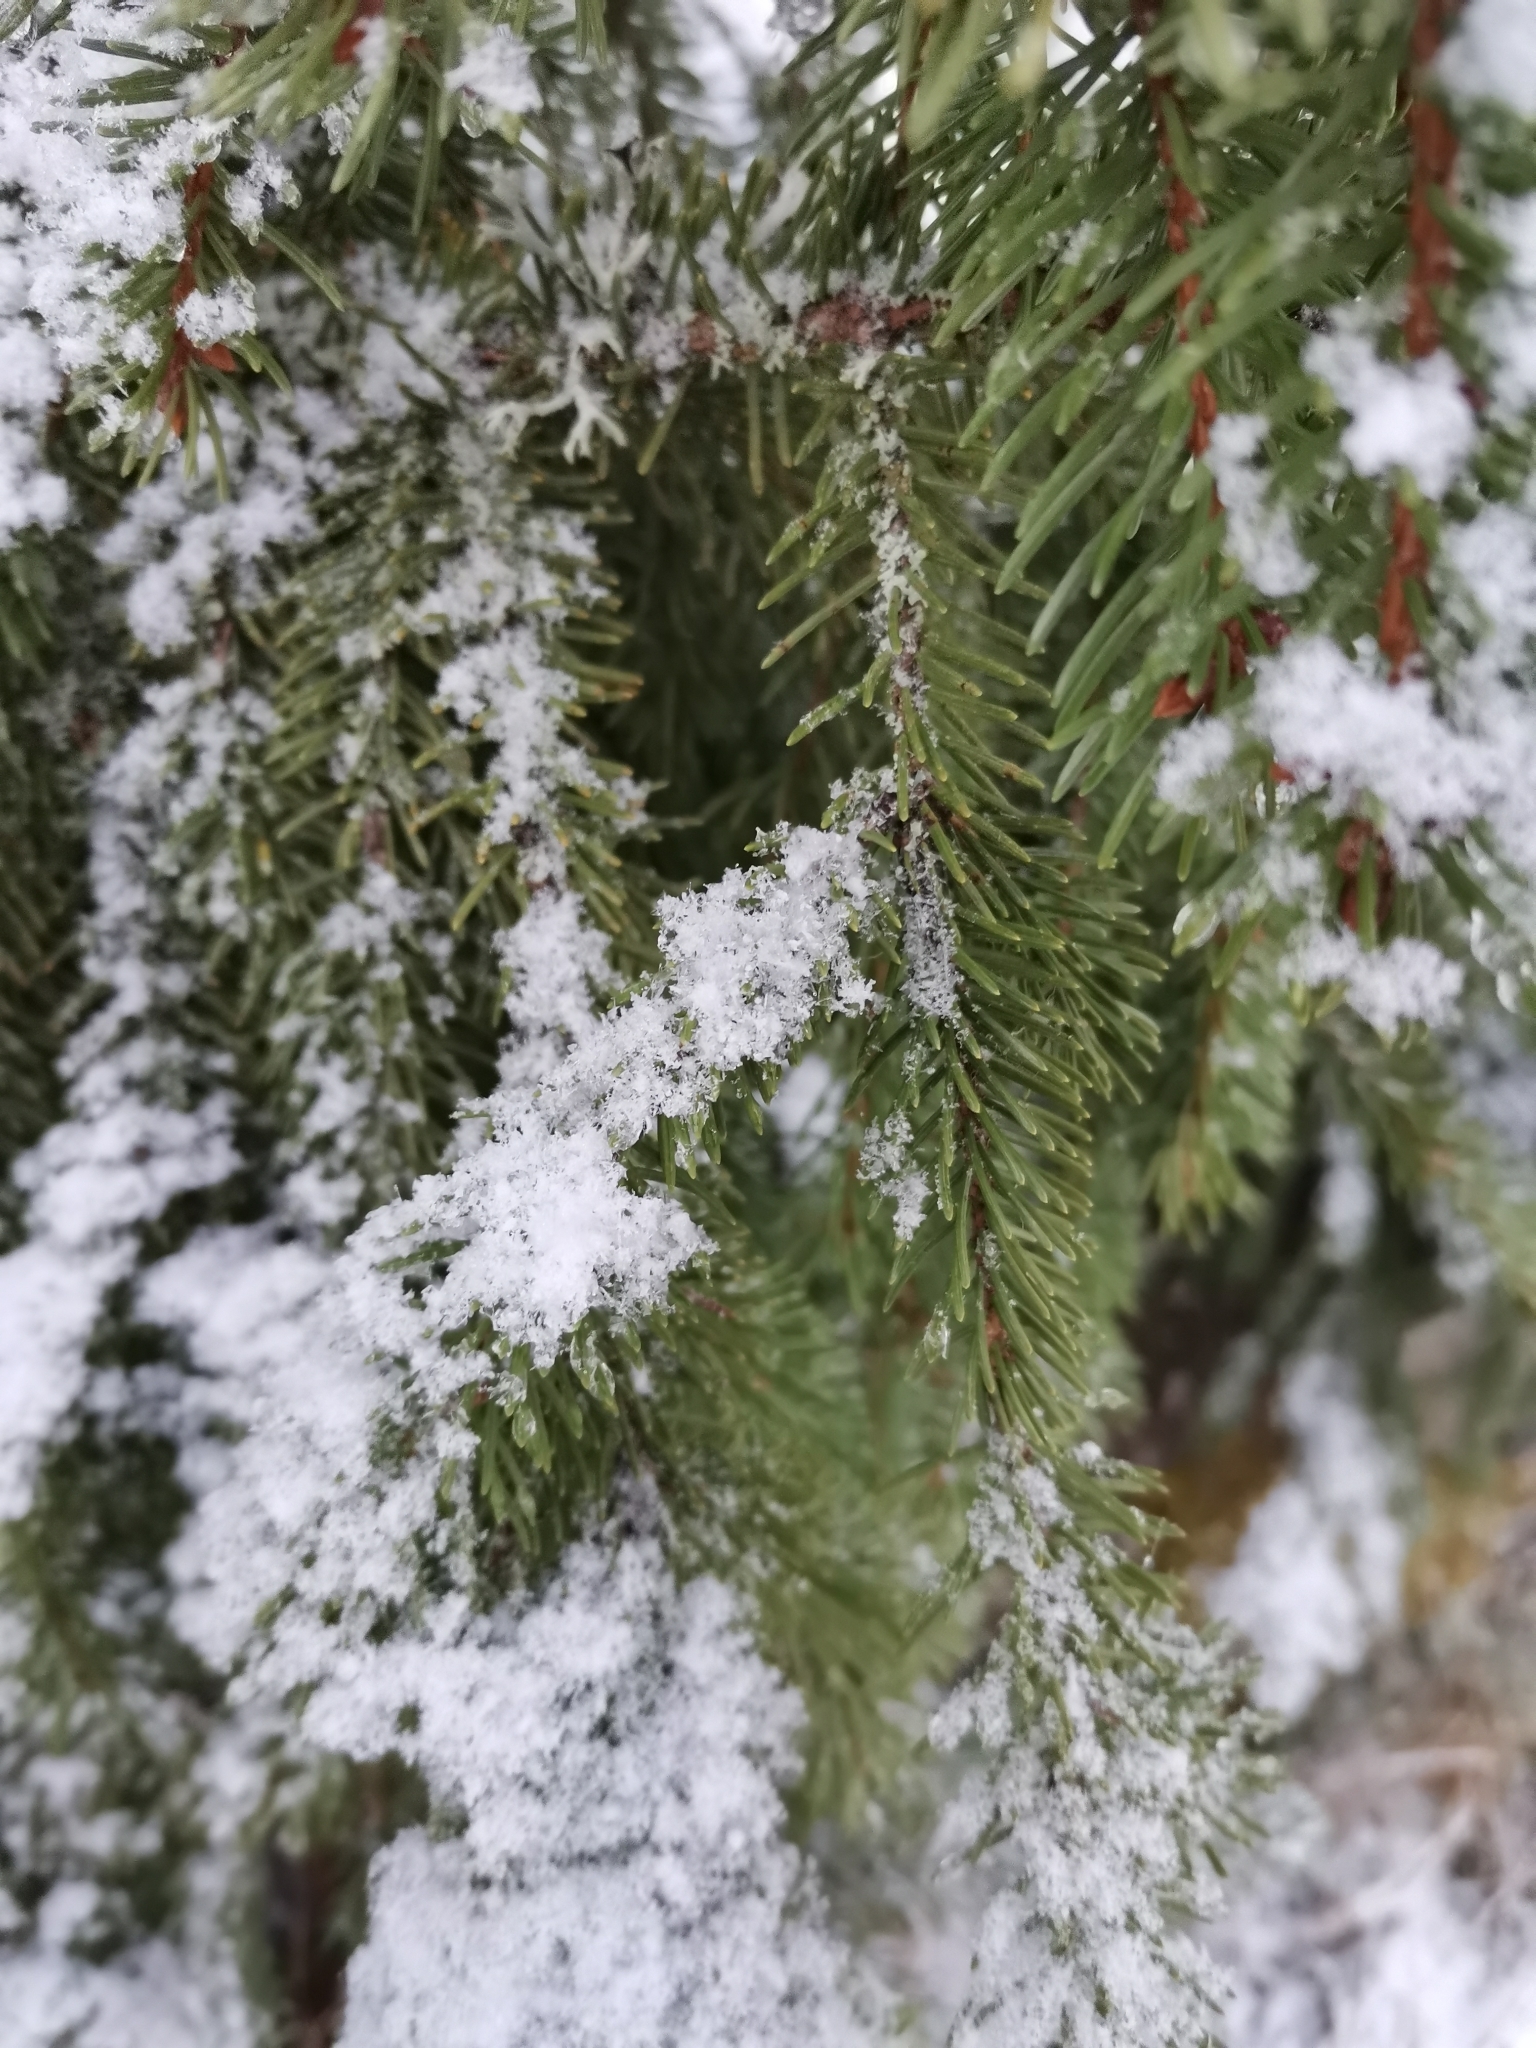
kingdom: Plantae
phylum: Tracheophyta
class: Pinopsida
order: Pinales
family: Pinaceae
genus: Picea
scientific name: Picea abies
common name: Norway spruce
